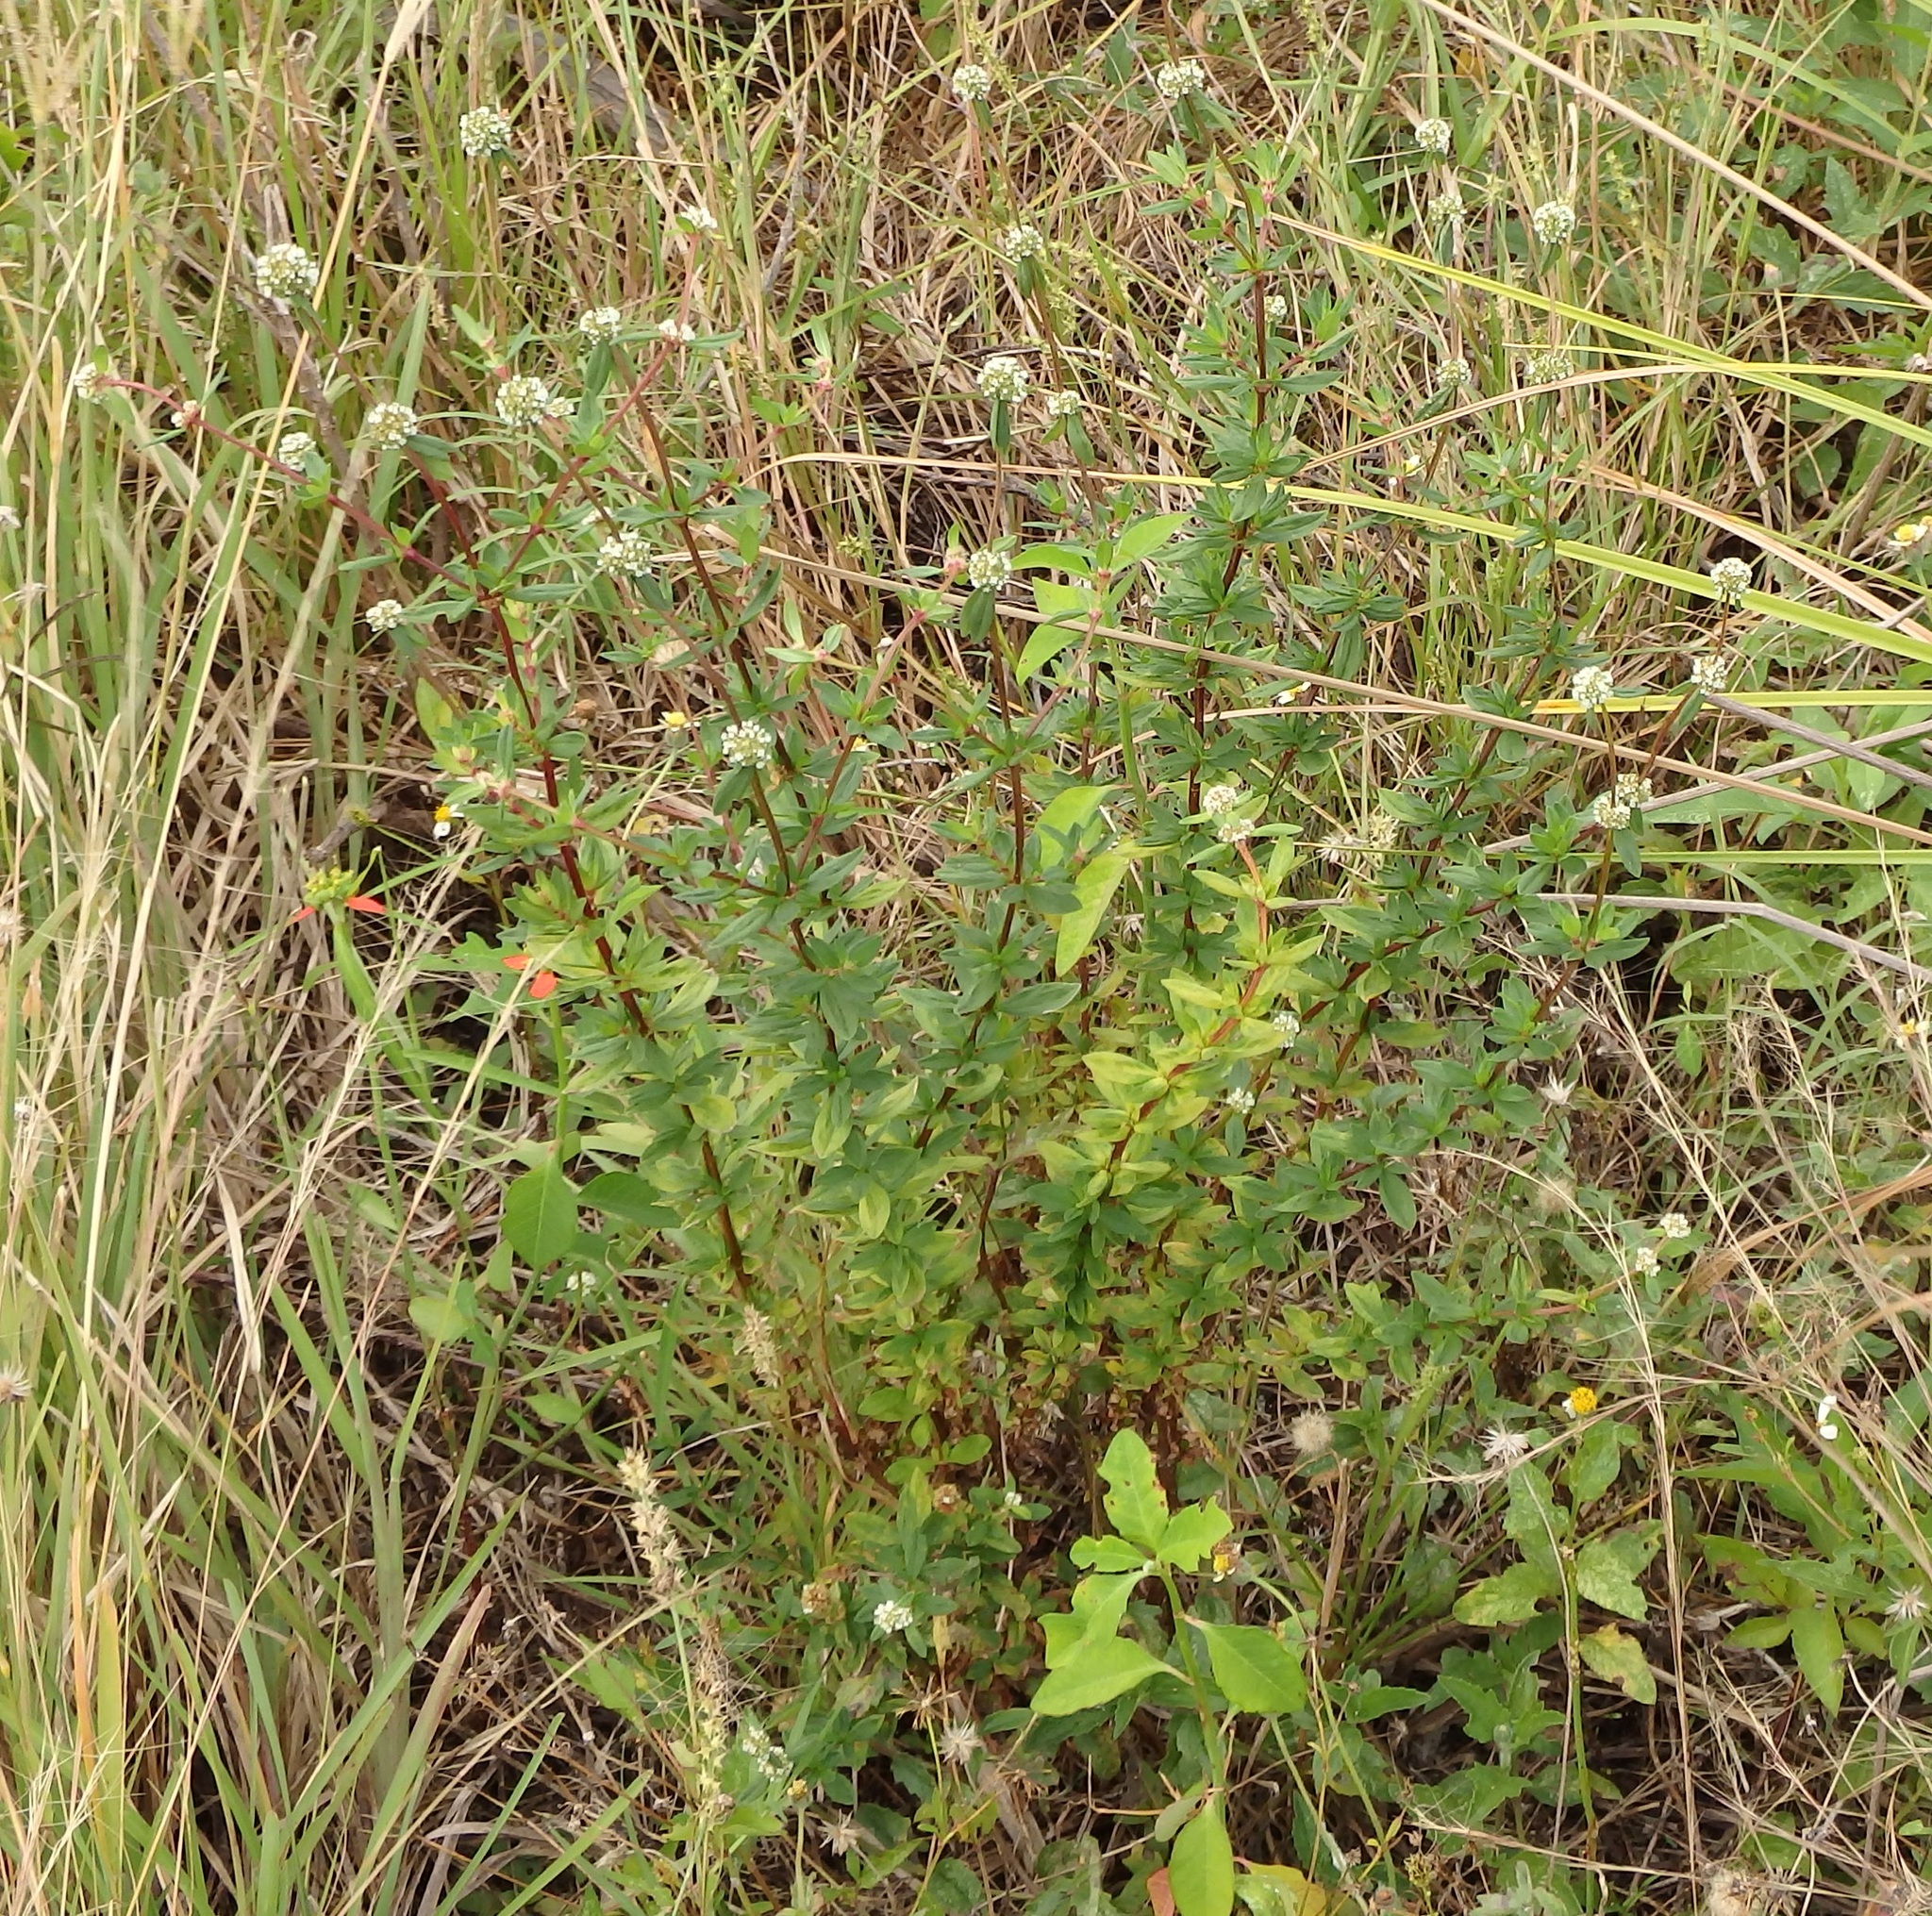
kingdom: Plantae
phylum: Tracheophyta
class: Magnoliopsida
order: Gentianales
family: Rubiaceae
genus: Spermacoce
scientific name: Spermacoce verticillata
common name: Shrubby false buttonweed
